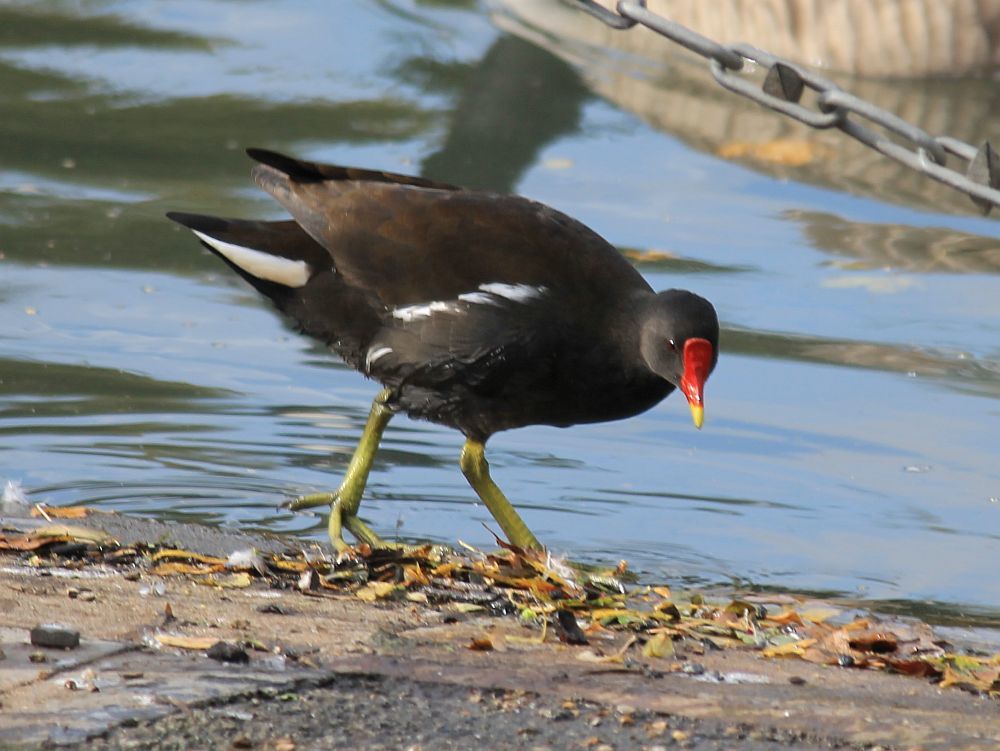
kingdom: Animalia
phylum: Chordata
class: Aves
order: Gruiformes
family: Rallidae
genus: Gallinula
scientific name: Gallinula chloropus
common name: Common moorhen
